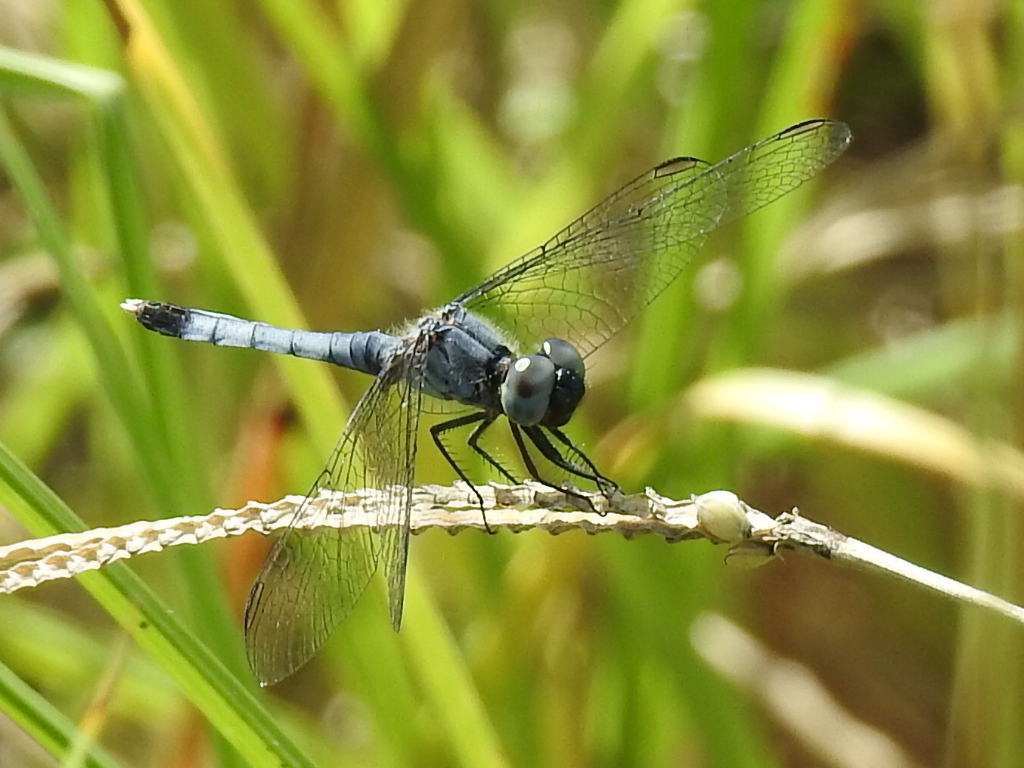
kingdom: Animalia
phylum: Arthropoda
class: Insecta
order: Odonata
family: Libellulidae
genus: Erythrodiplax
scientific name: Erythrodiplax minuscula
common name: Little blue dragonlet
